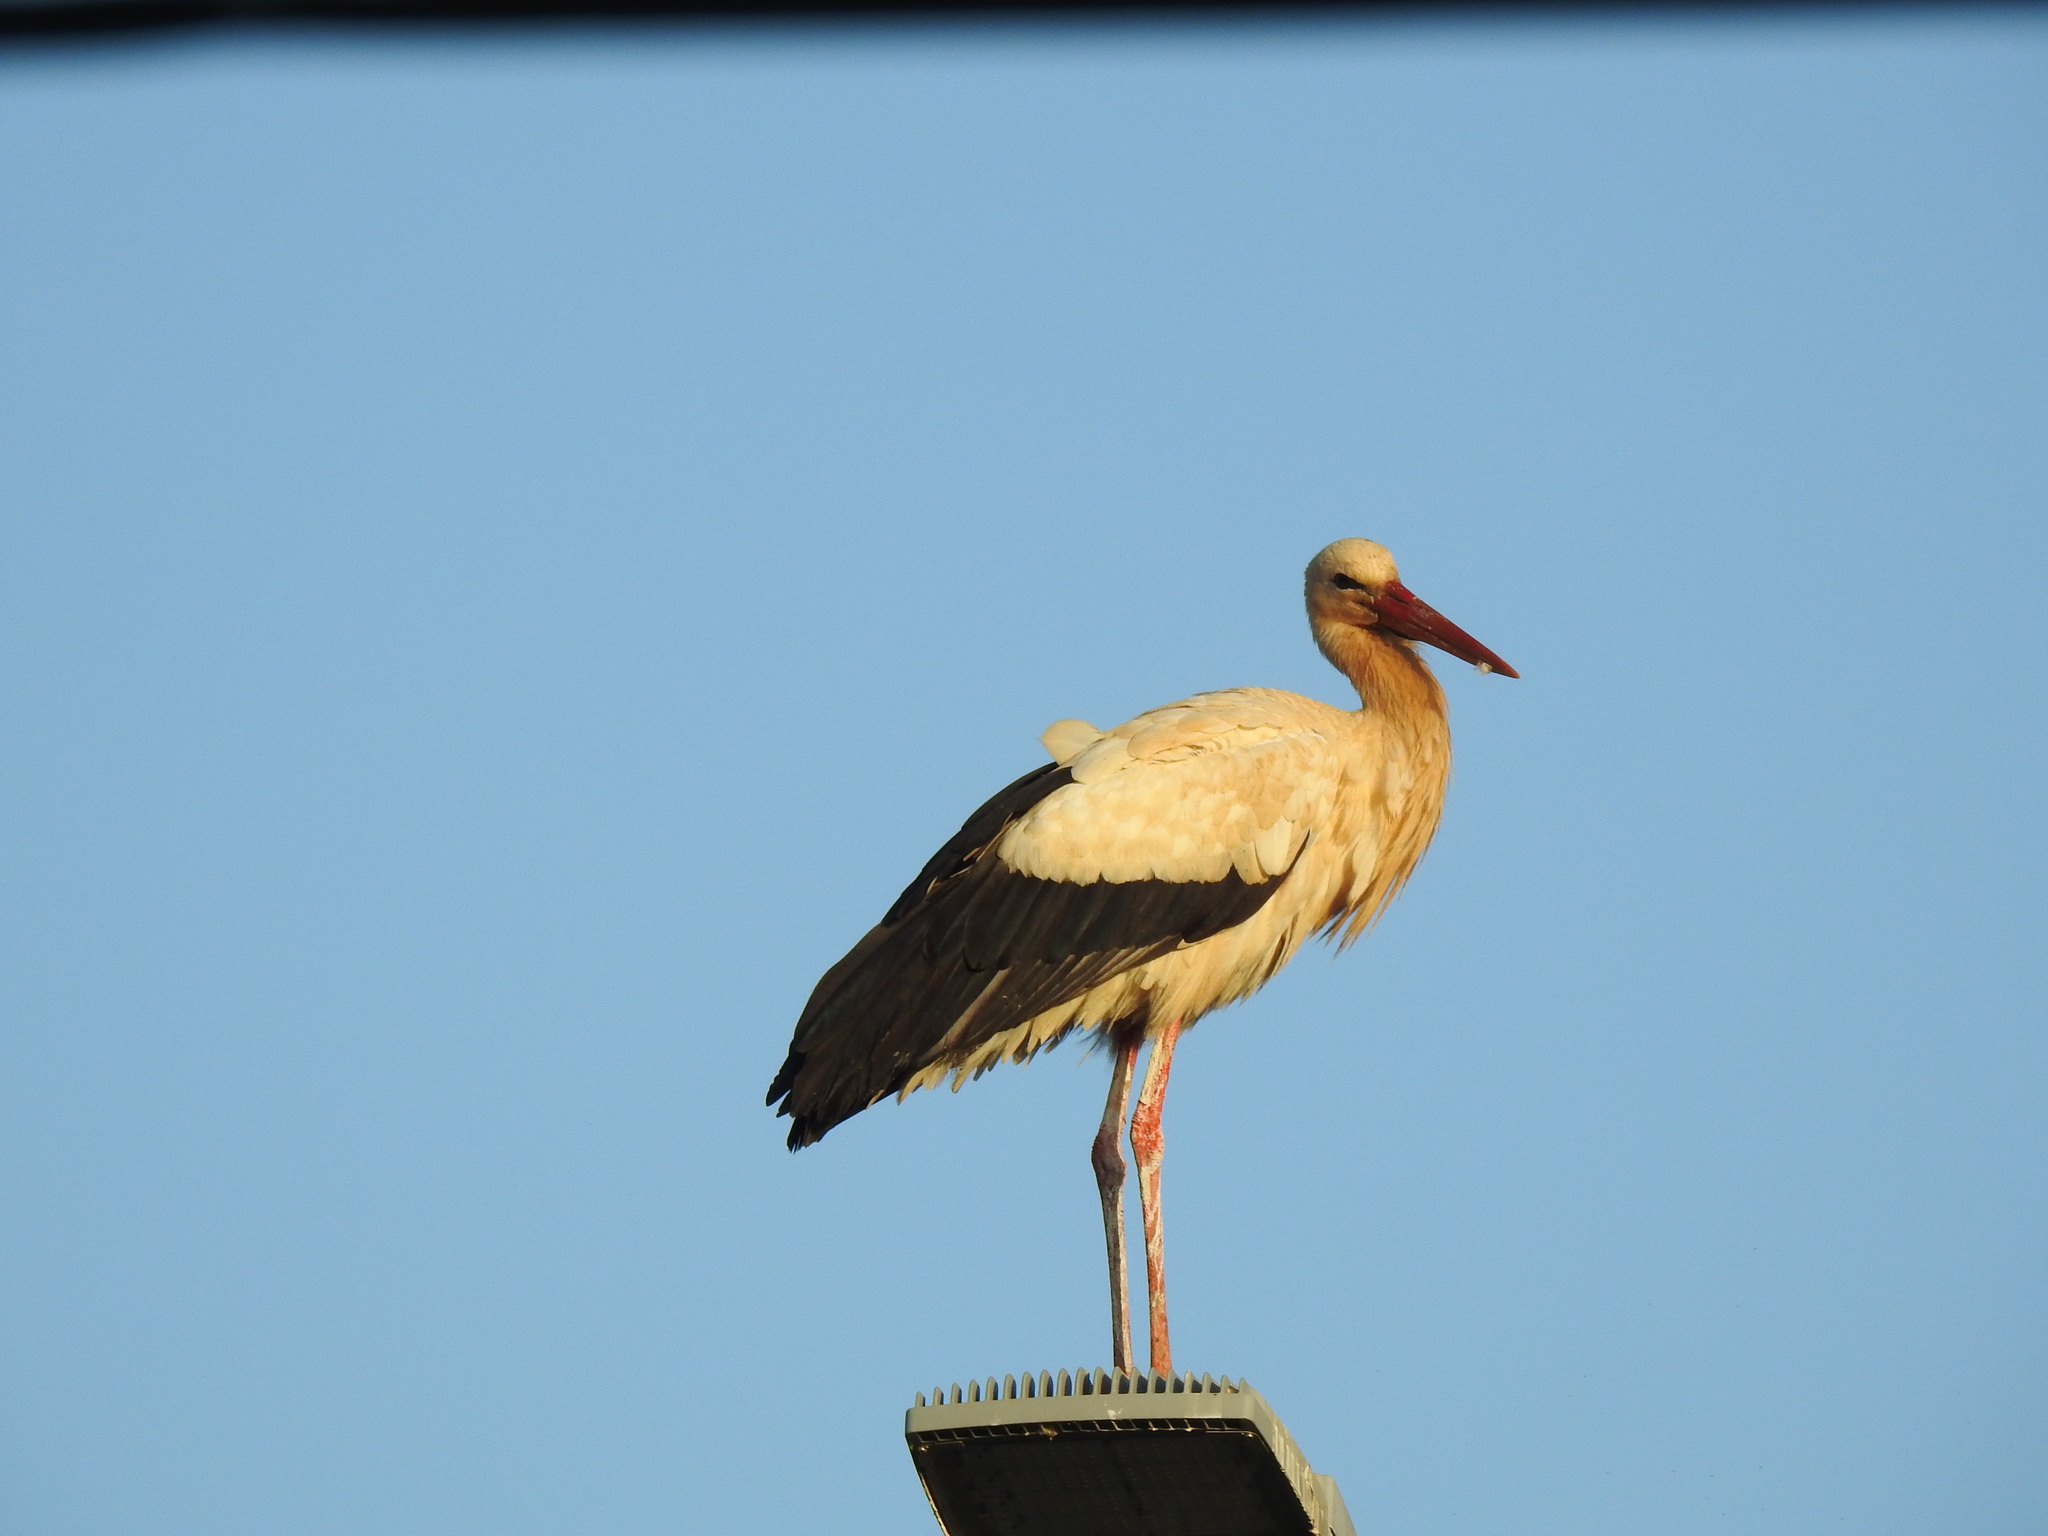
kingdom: Animalia
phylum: Chordata
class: Aves
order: Ciconiiformes
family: Ciconiidae
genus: Ciconia
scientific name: Ciconia ciconia
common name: White stork
